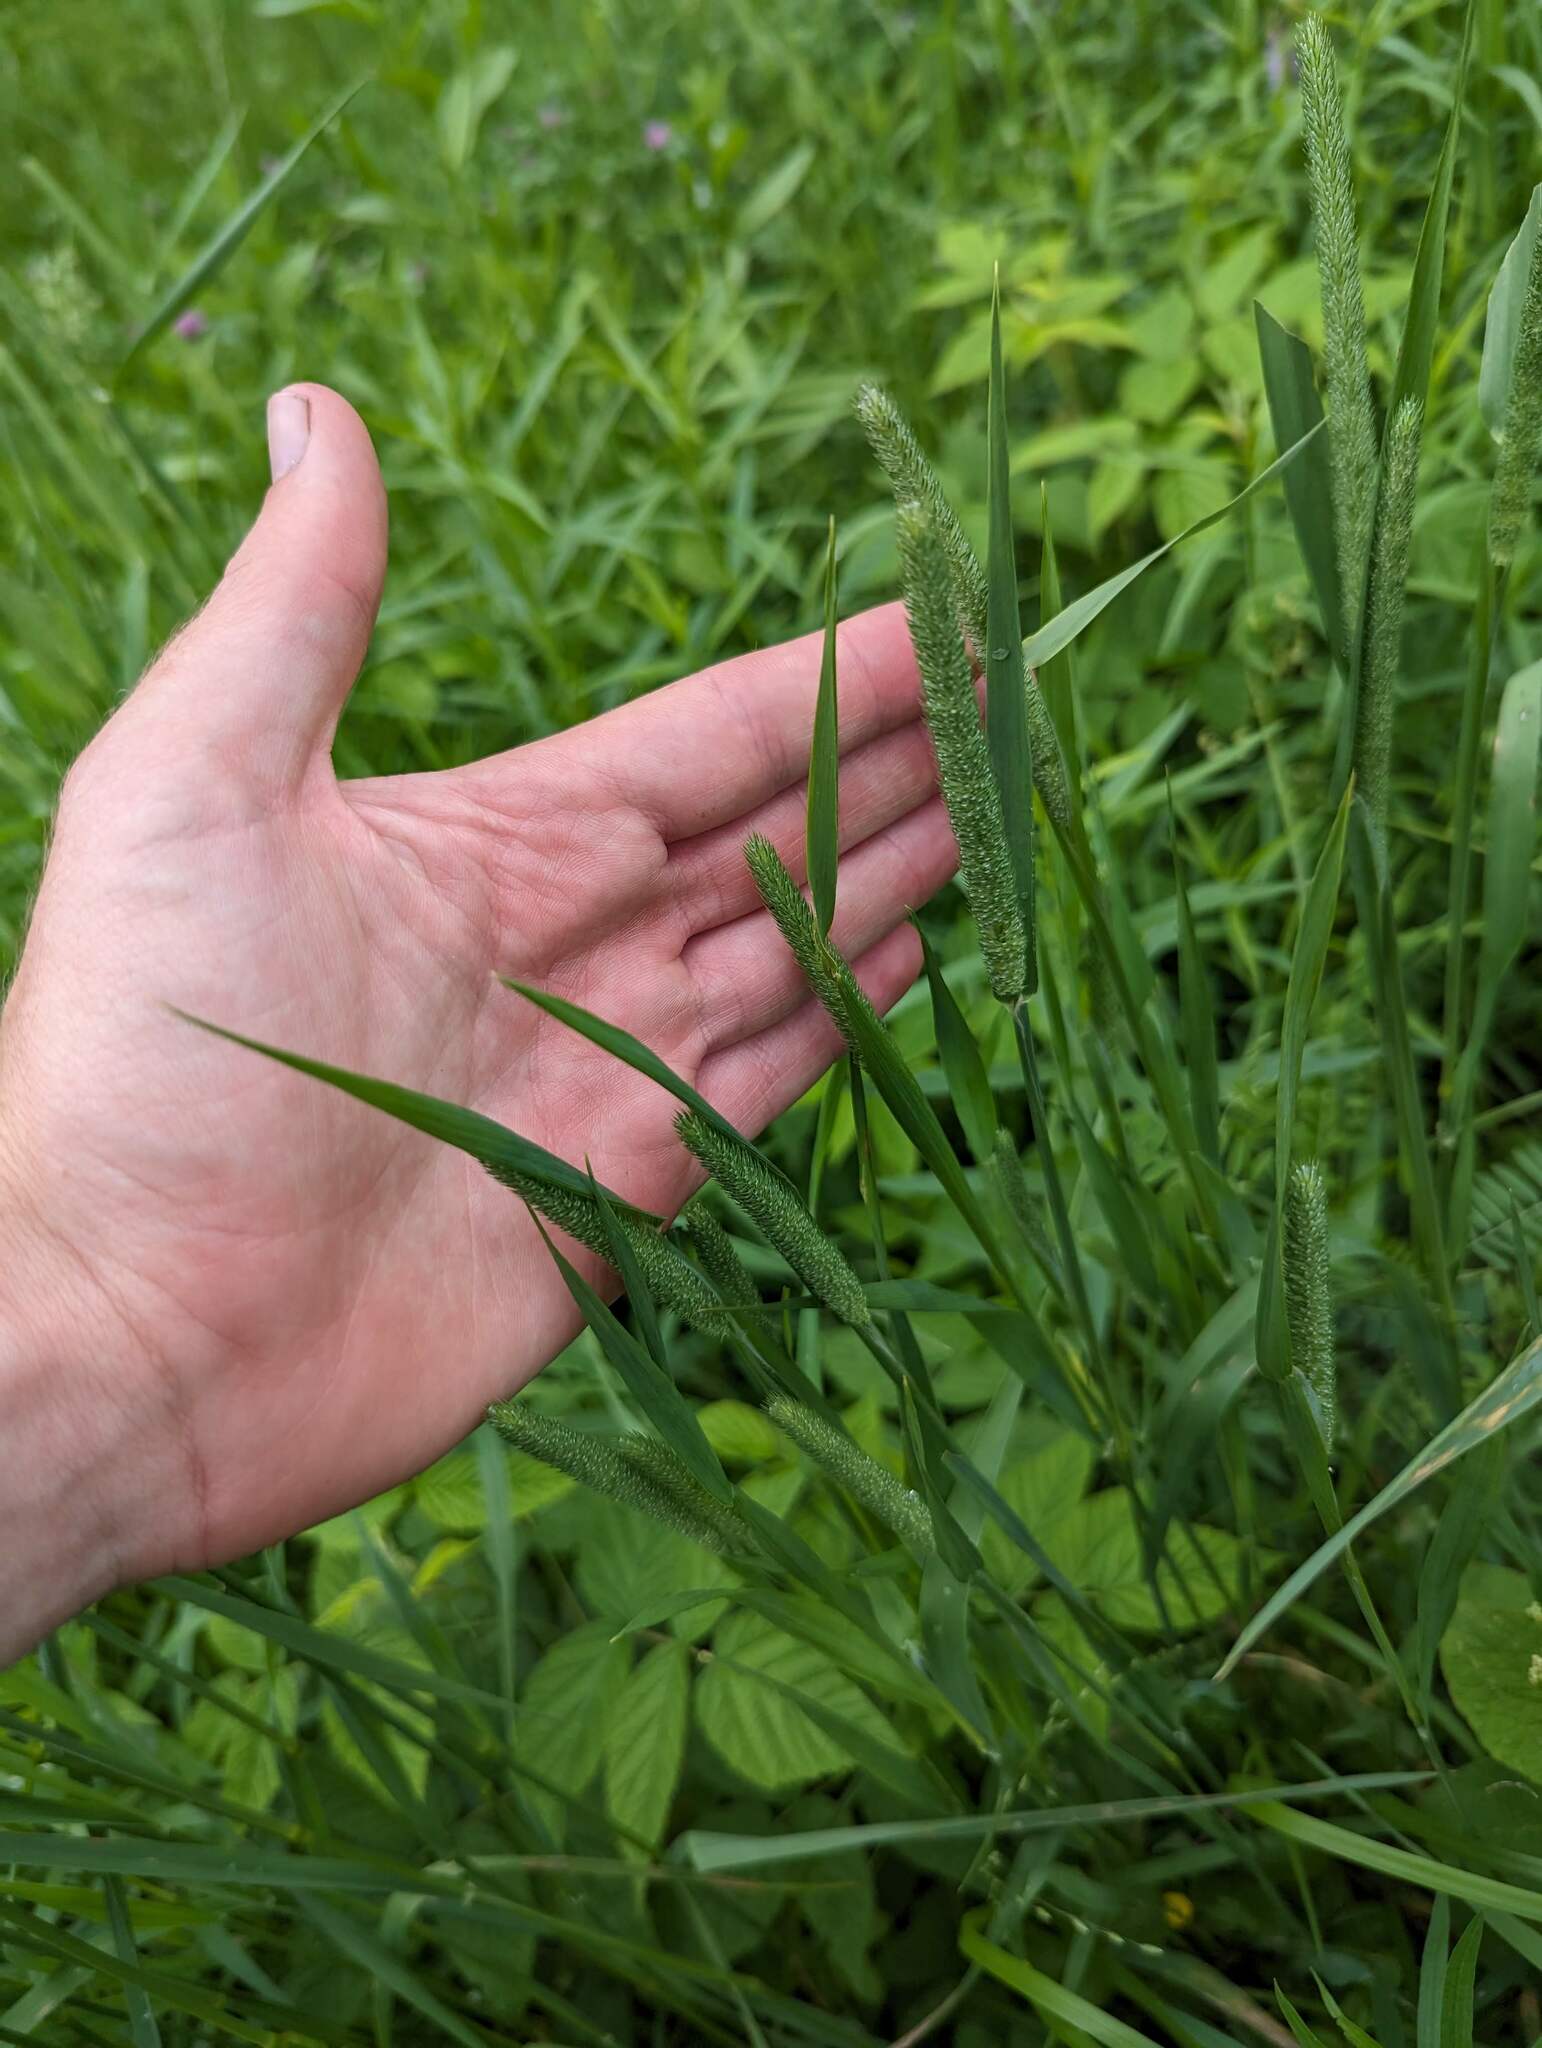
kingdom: Plantae
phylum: Tracheophyta
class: Liliopsida
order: Poales
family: Poaceae
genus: Phleum
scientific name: Phleum pratense
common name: Timothy grass
